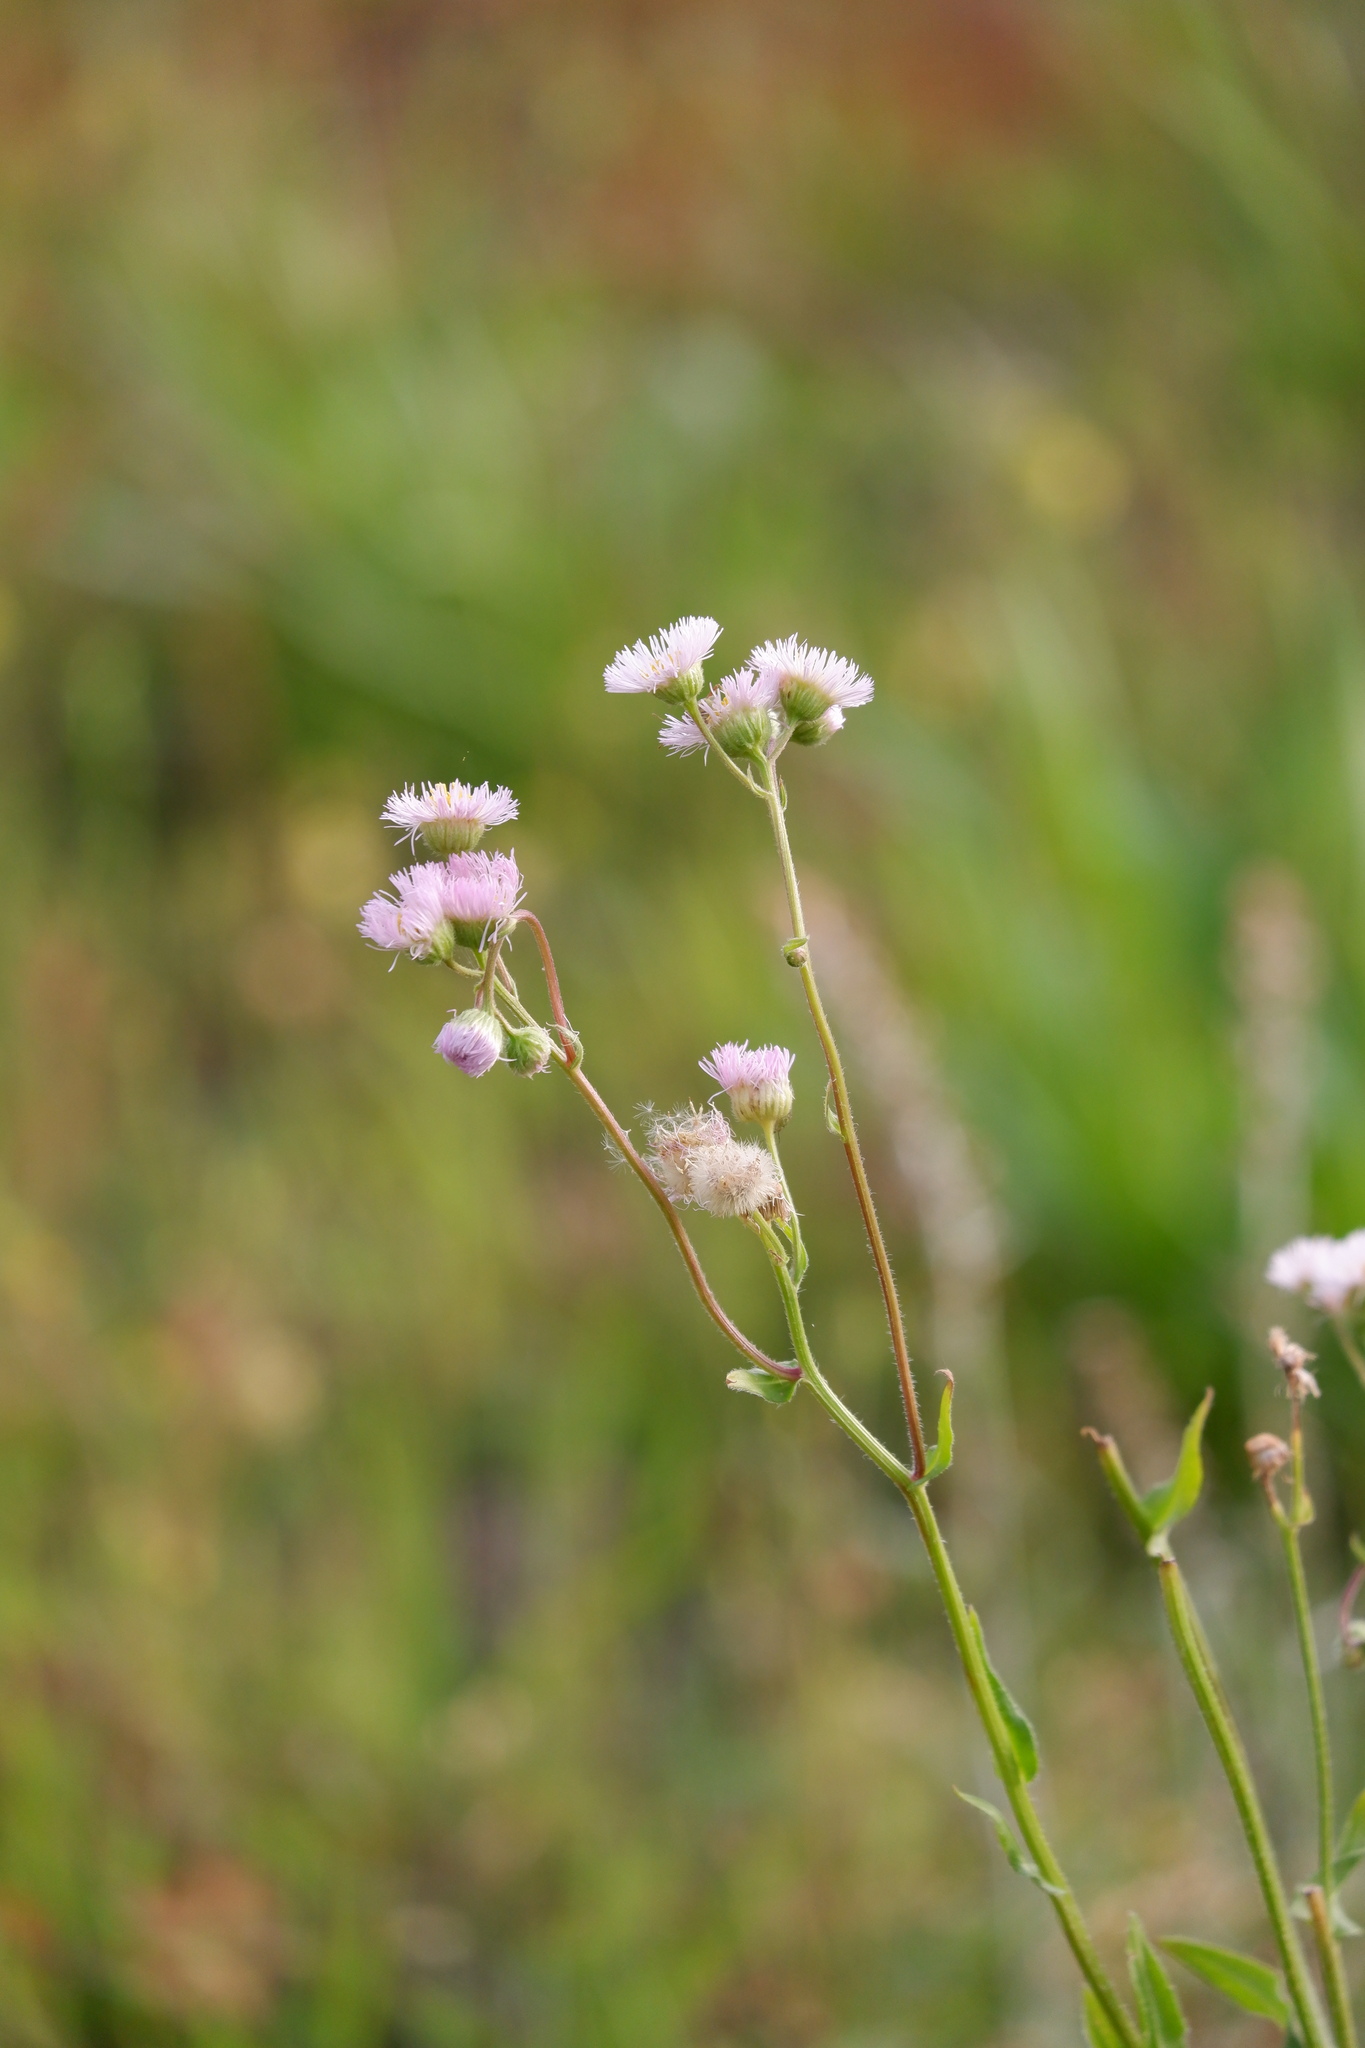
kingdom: Plantae
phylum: Tracheophyta
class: Magnoliopsida
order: Asterales
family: Asteraceae
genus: Erigeron
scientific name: Erigeron philadelphicus
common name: Robin's-plantain
